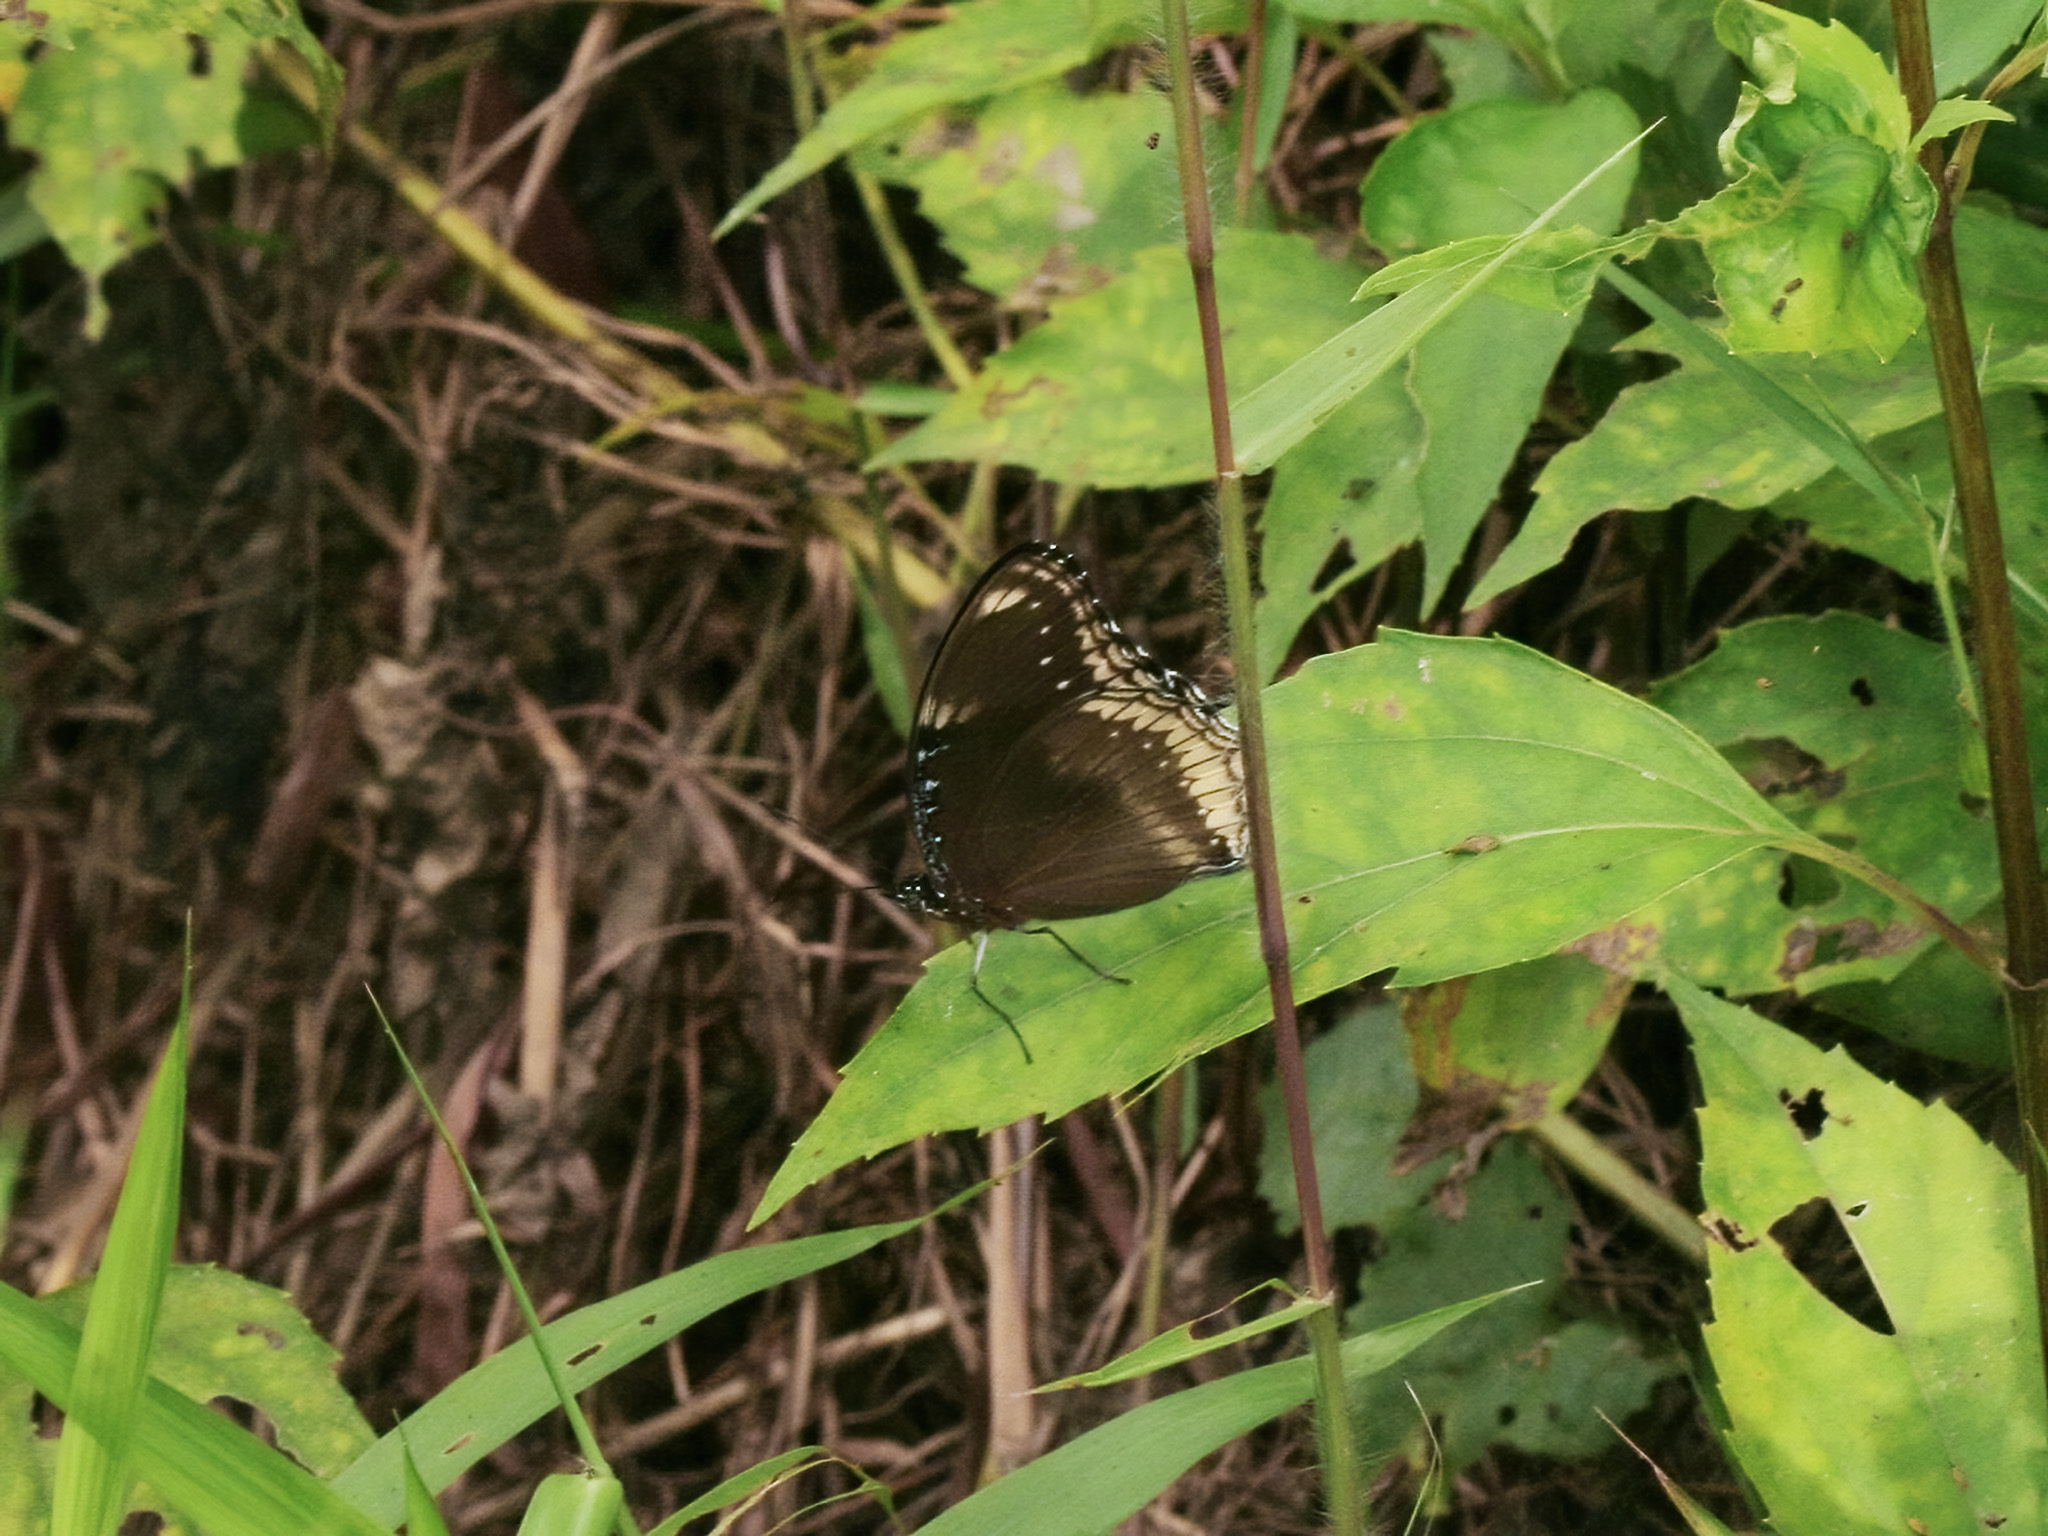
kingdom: Animalia
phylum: Arthropoda
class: Insecta
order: Lepidoptera
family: Nymphalidae
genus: Hypolimnas
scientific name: Hypolimnas bolina
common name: Great eggfly
